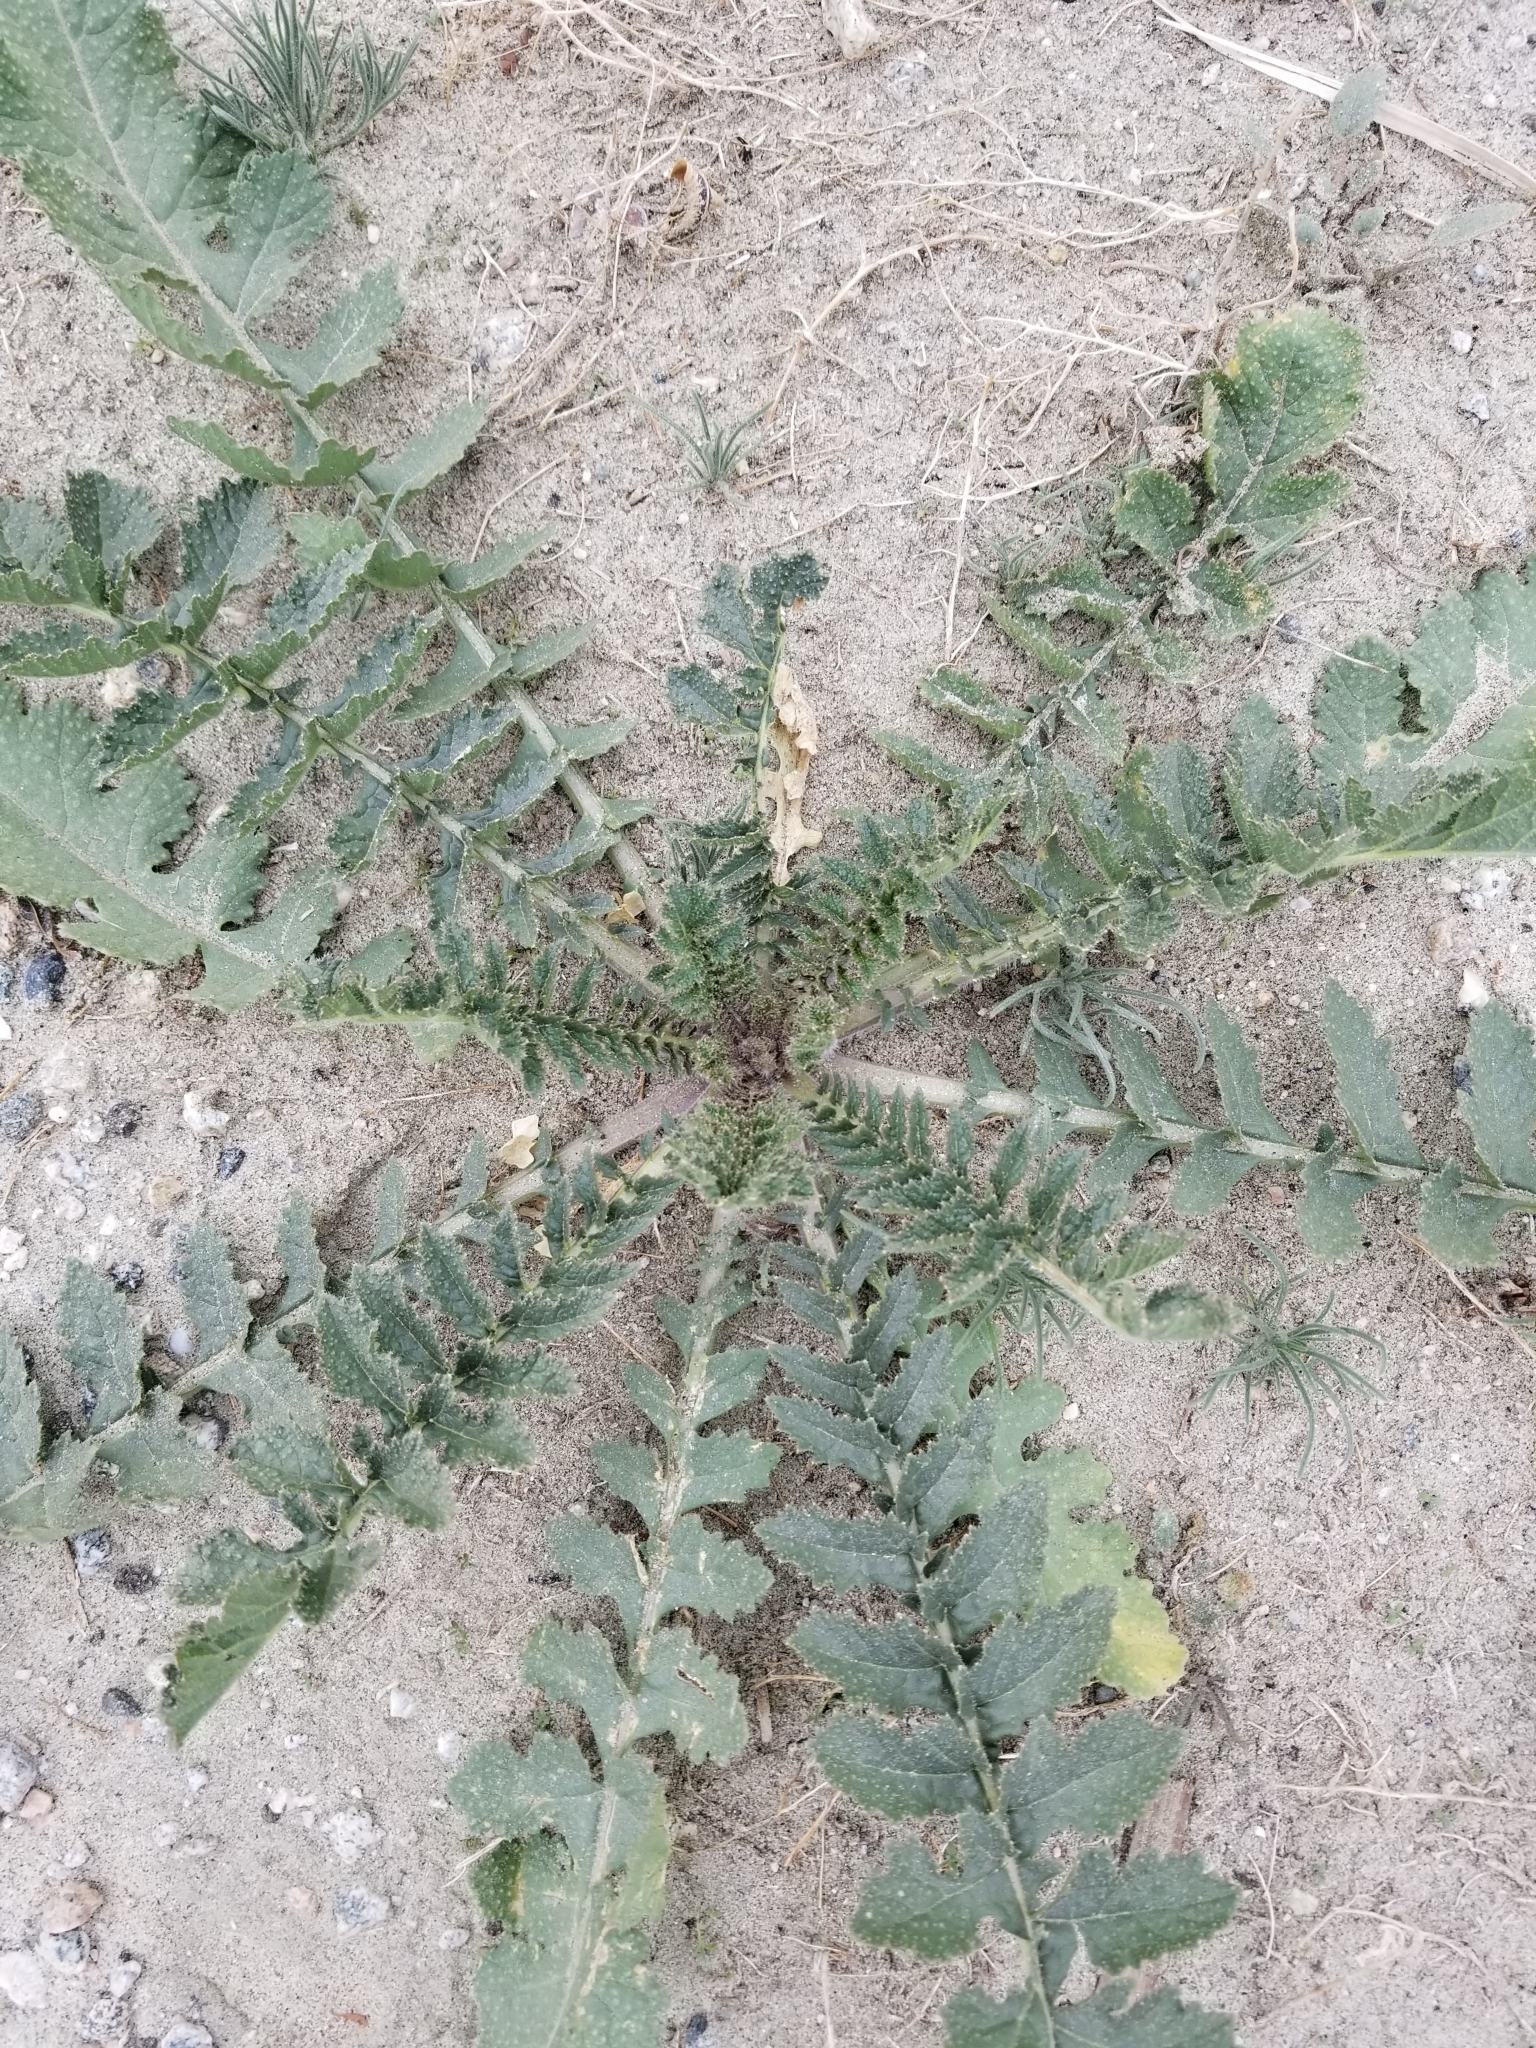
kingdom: Plantae
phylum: Tracheophyta
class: Magnoliopsida
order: Brassicales
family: Brassicaceae
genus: Brassica
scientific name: Brassica tournefortii
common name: Pale cabbage
